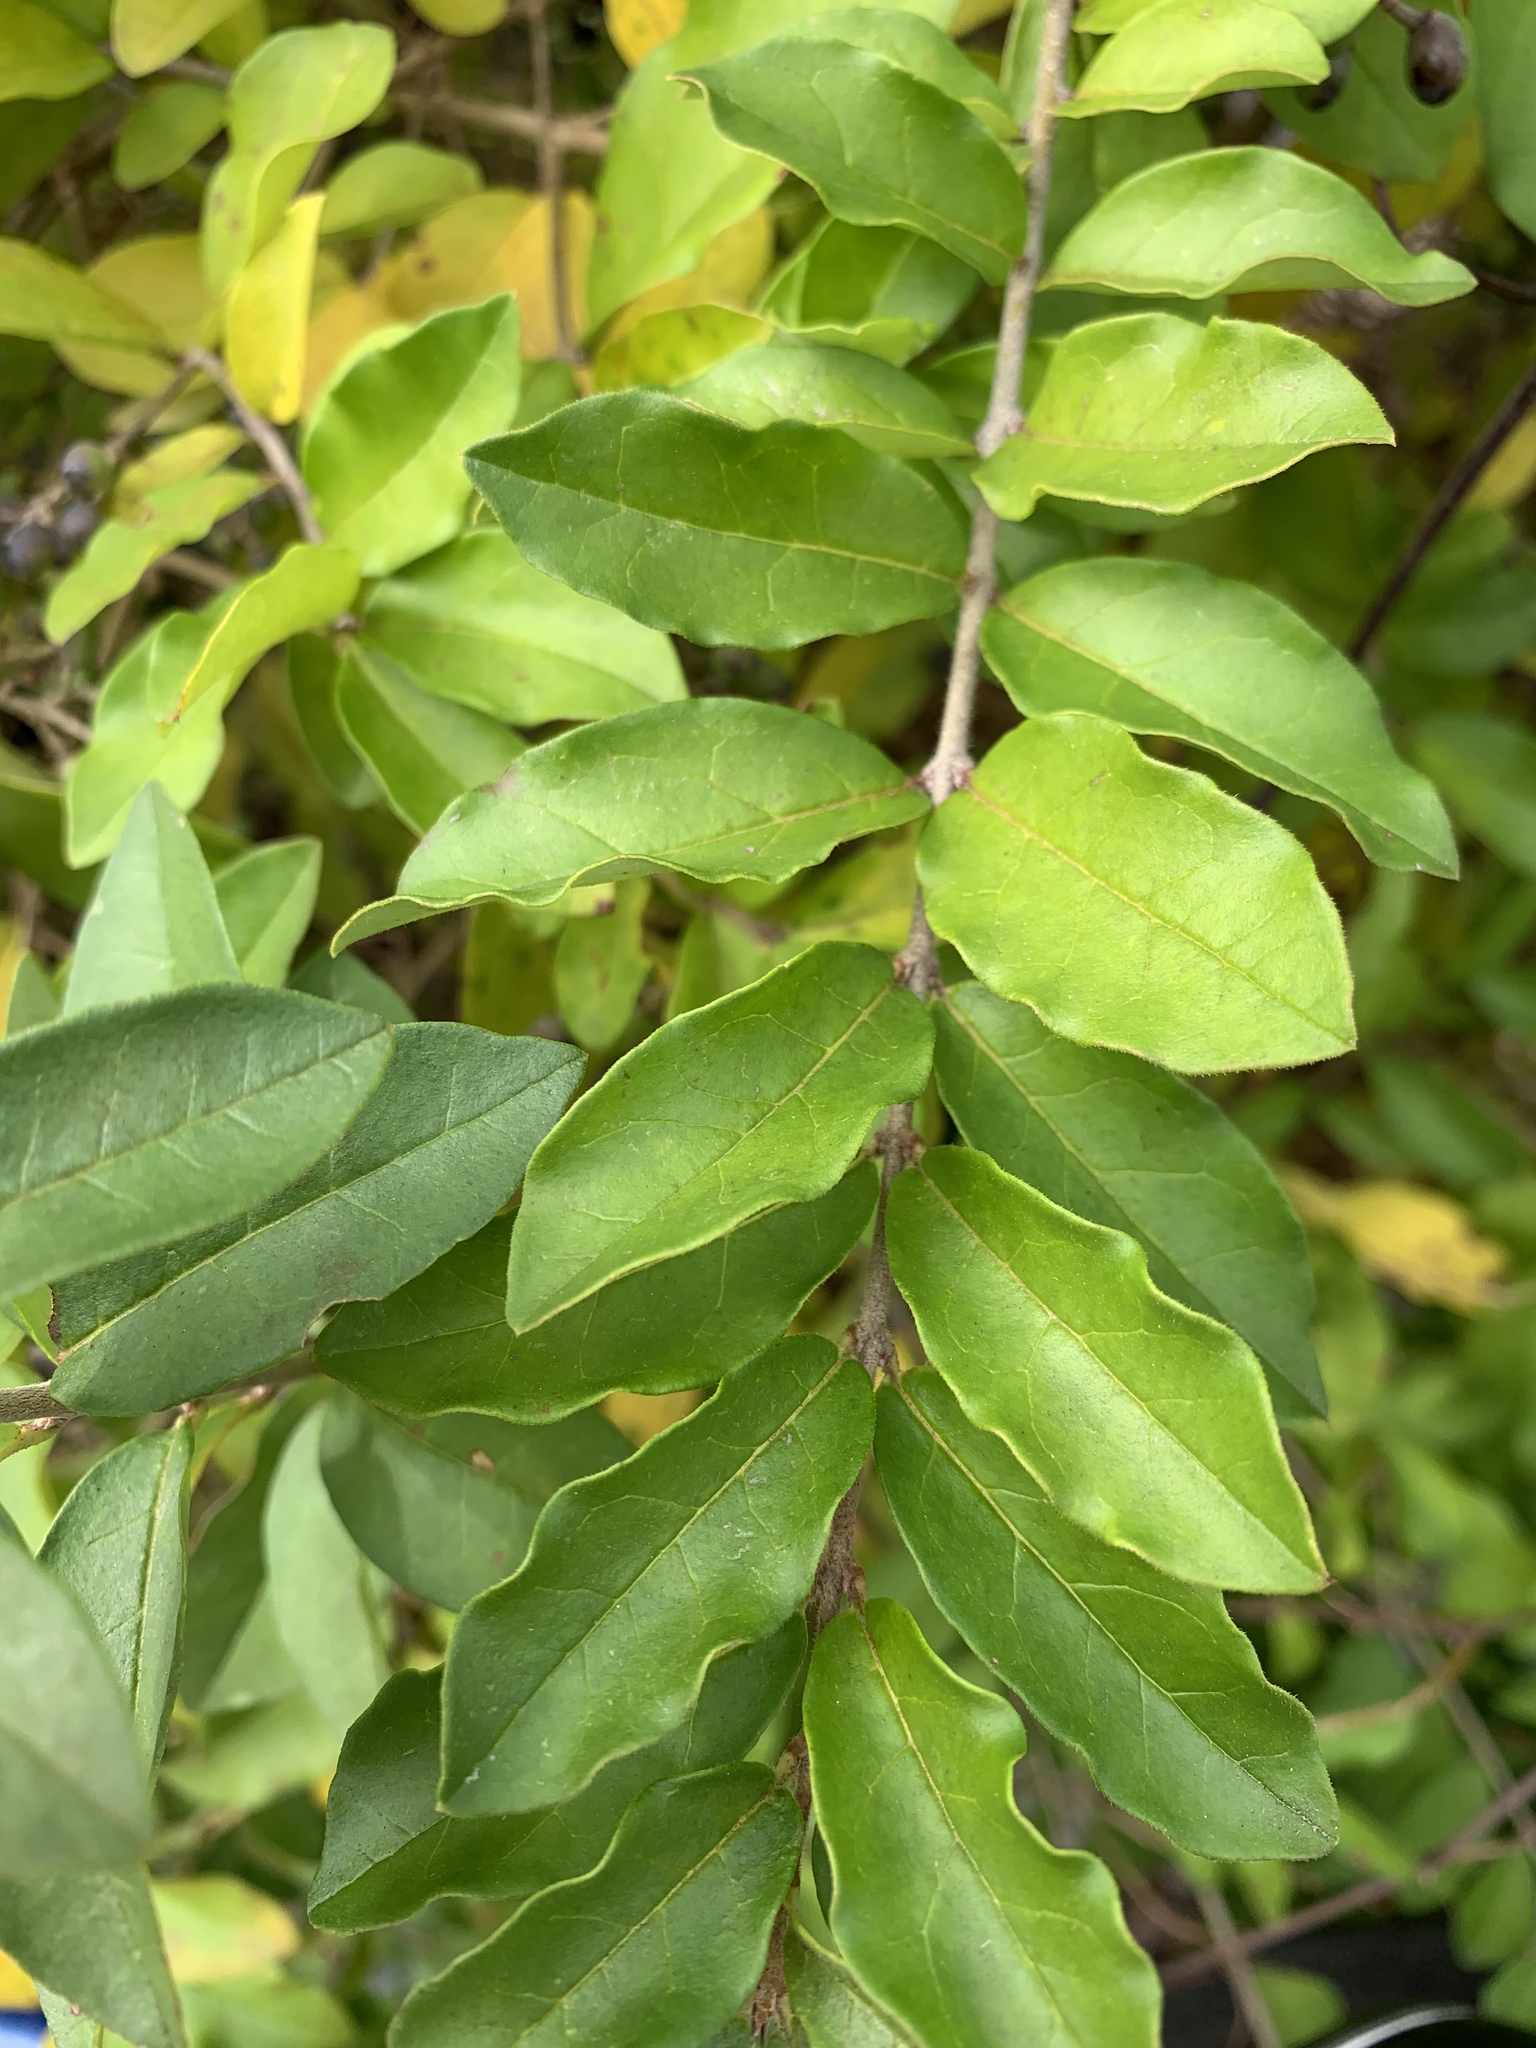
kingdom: Plantae
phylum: Tracheophyta
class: Magnoliopsida
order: Lamiales
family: Oleaceae
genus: Ligustrum
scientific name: Ligustrum obtusifolium
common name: Border privet
